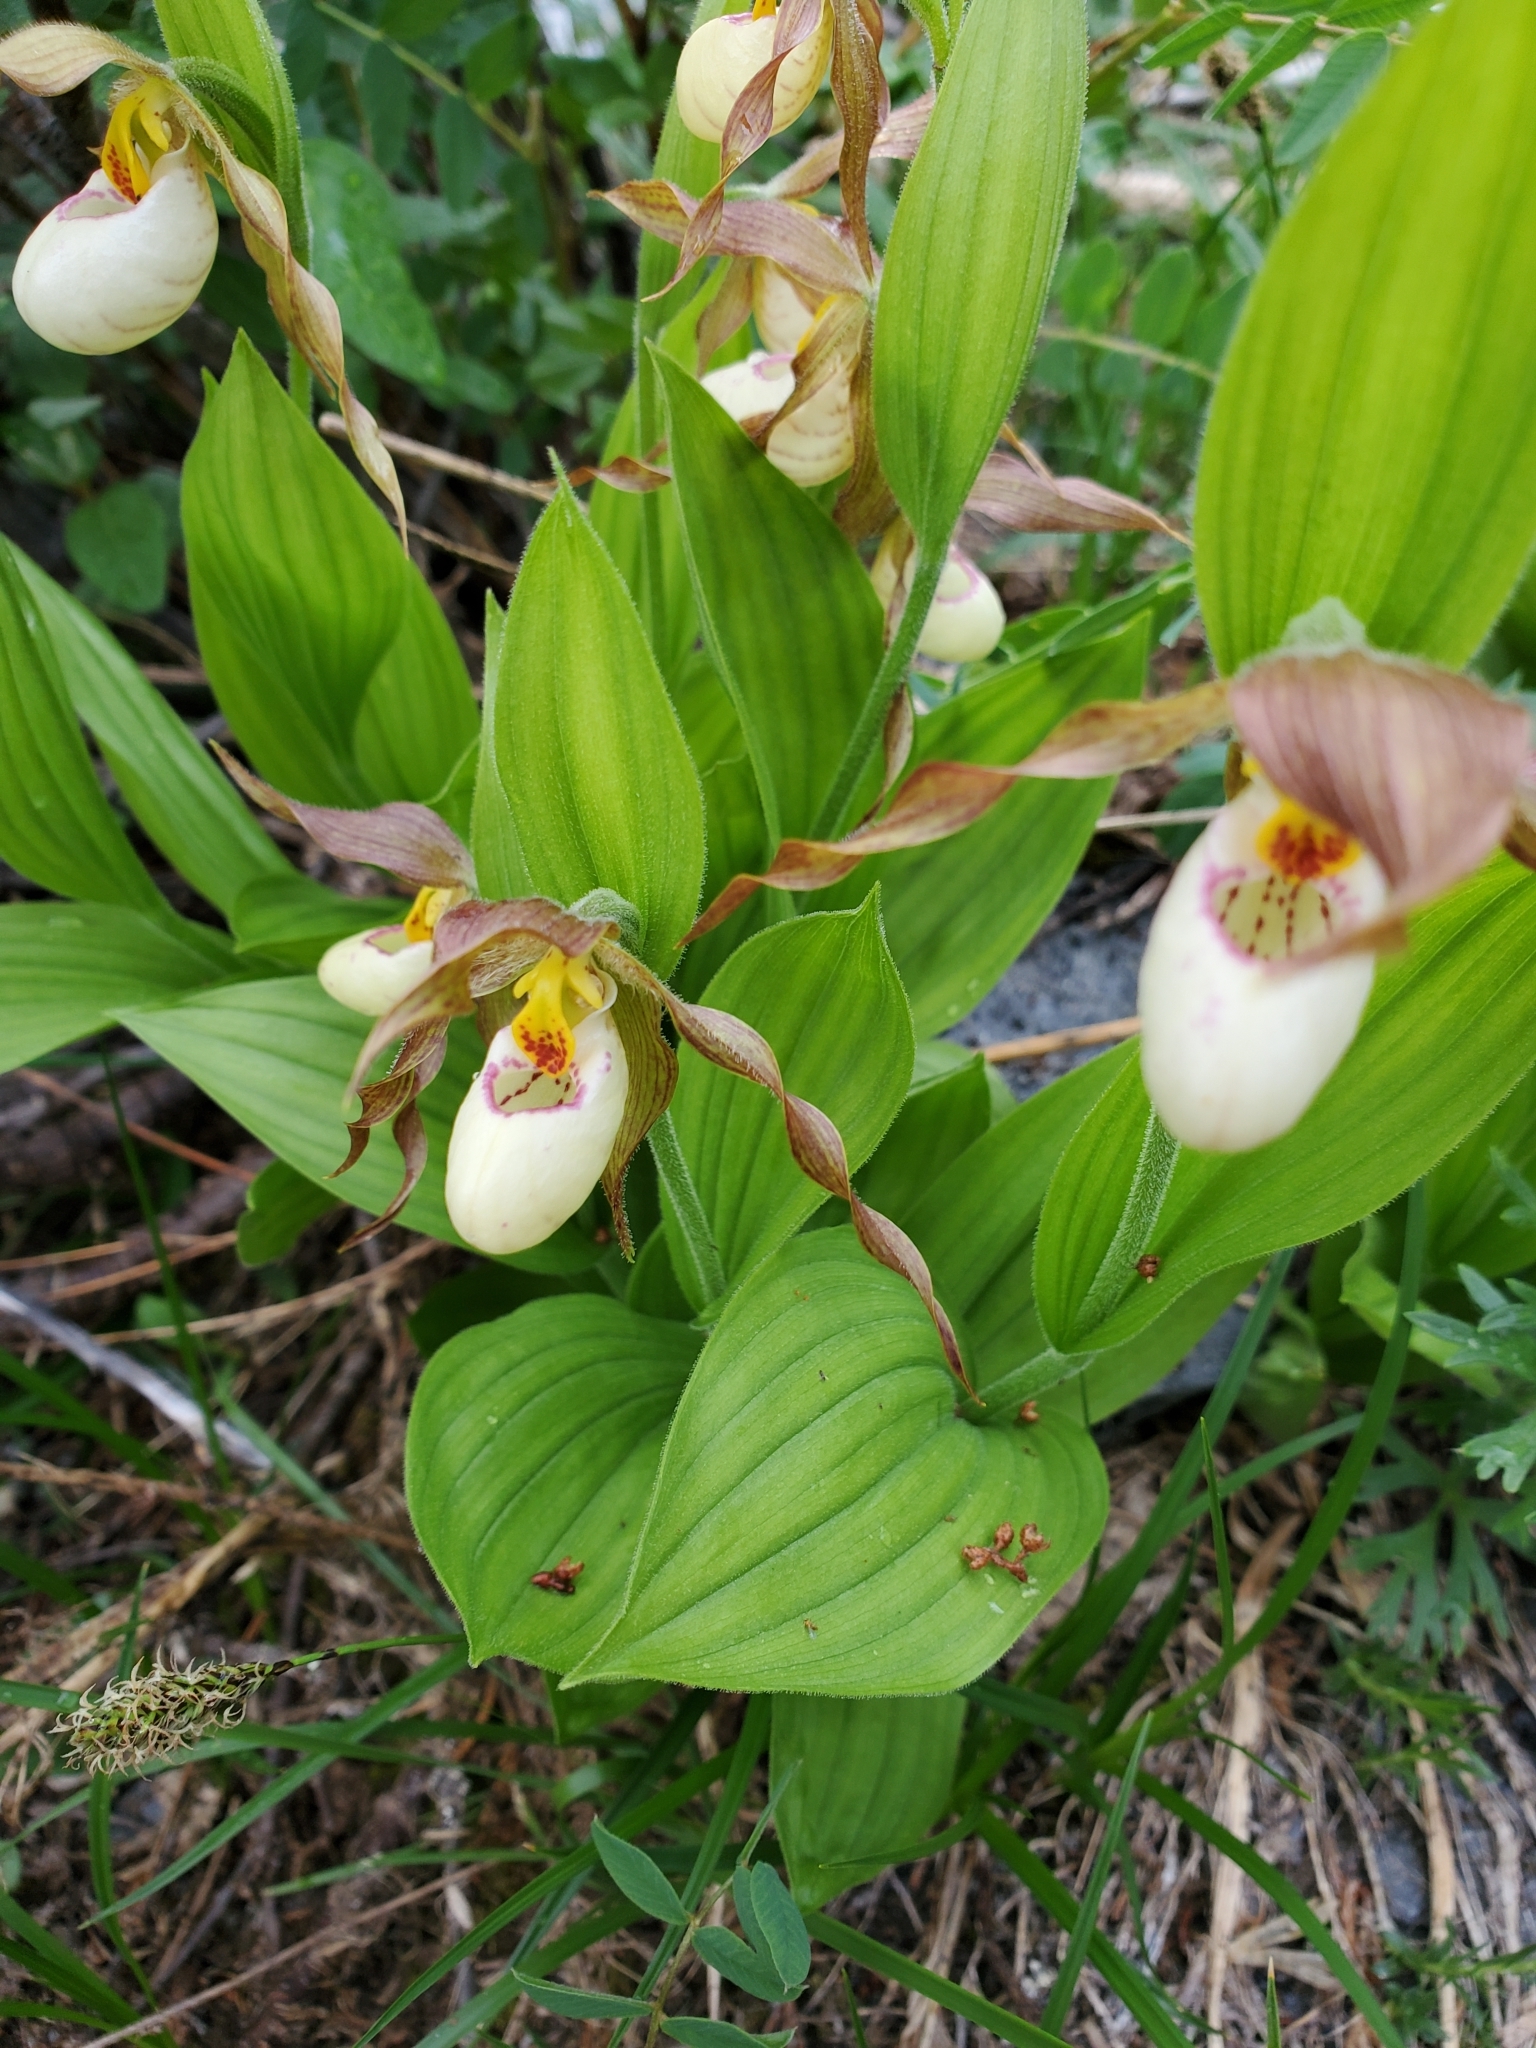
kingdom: Plantae
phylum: Tracheophyta
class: Liliopsida
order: Asparagales
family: Orchidaceae
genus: Cypripedium
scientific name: Cypripedium montanum
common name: Mountain lady's-slipper
